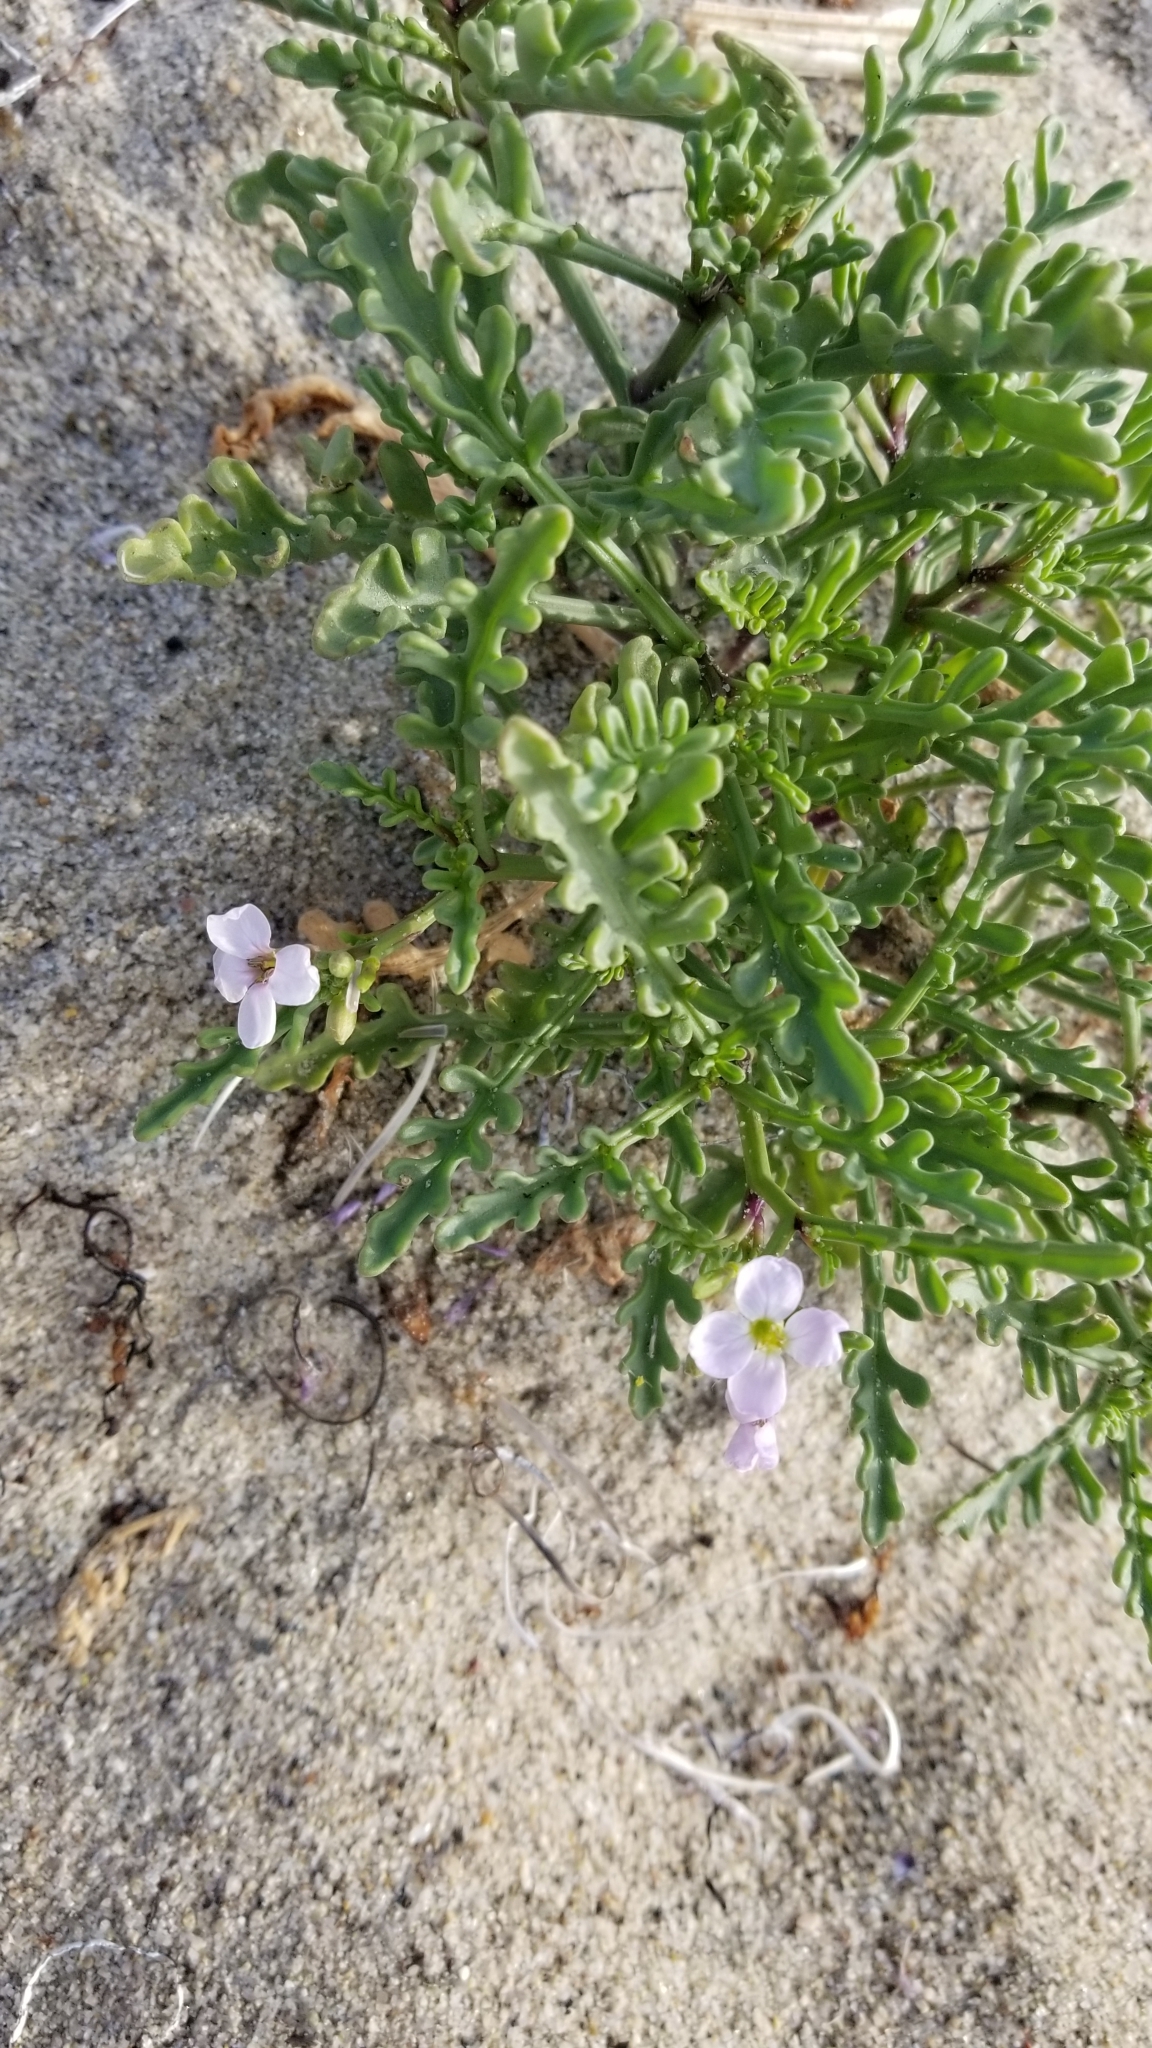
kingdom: Plantae
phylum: Tracheophyta
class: Magnoliopsida
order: Brassicales
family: Brassicaceae
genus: Cakile
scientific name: Cakile maritima
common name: Sea rocket
